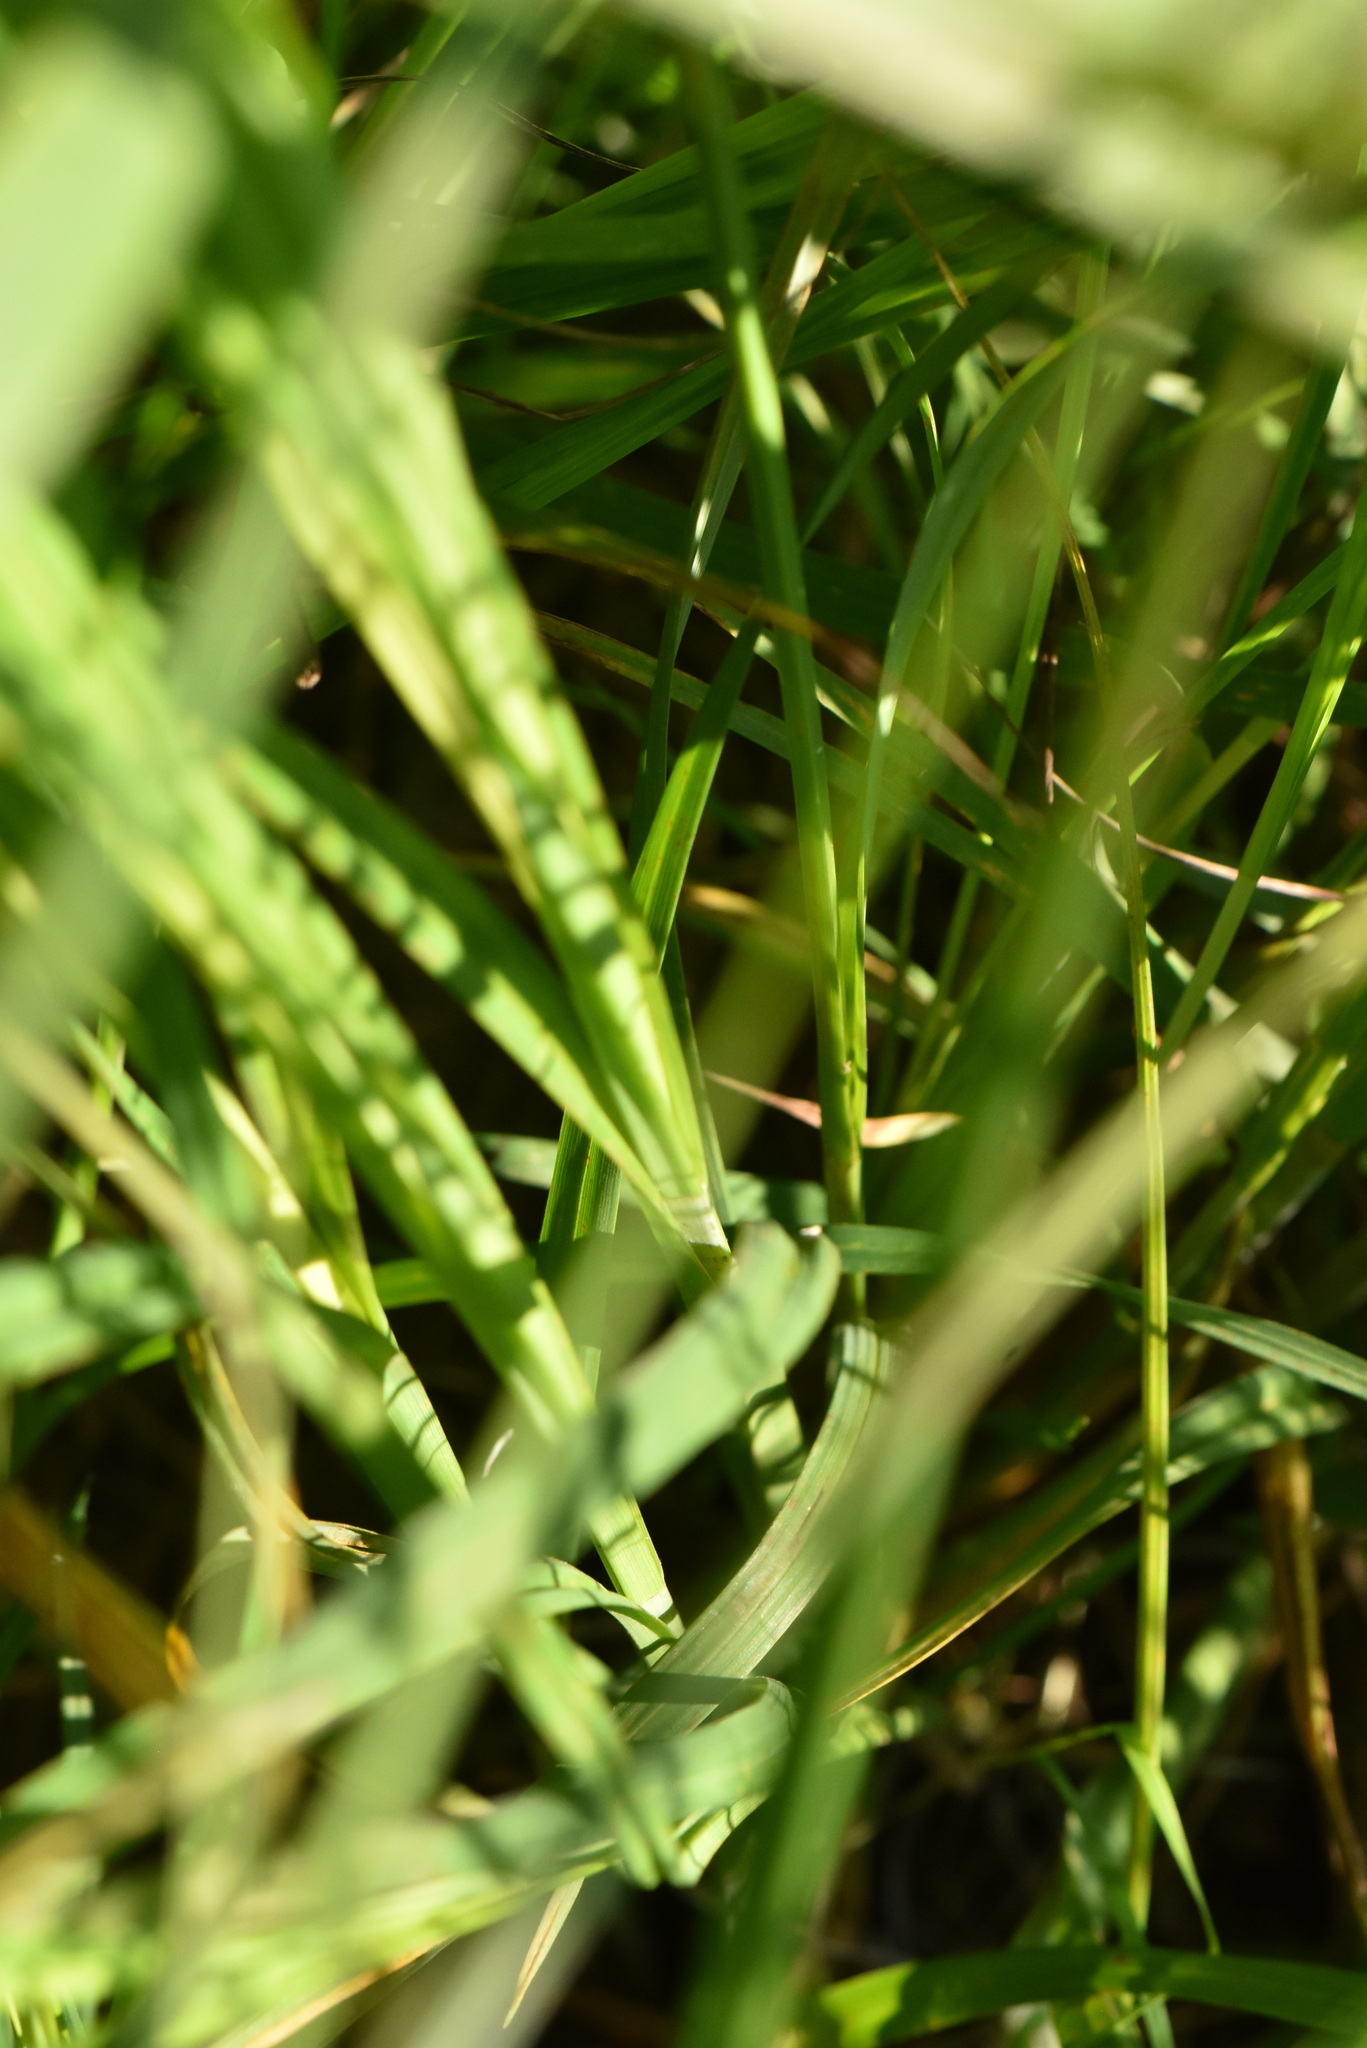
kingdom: Plantae
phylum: Tracheophyta
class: Liliopsida
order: Poales
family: Cyperaceae
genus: Carex
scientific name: Carex acuta
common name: Slender tufted-sedge
